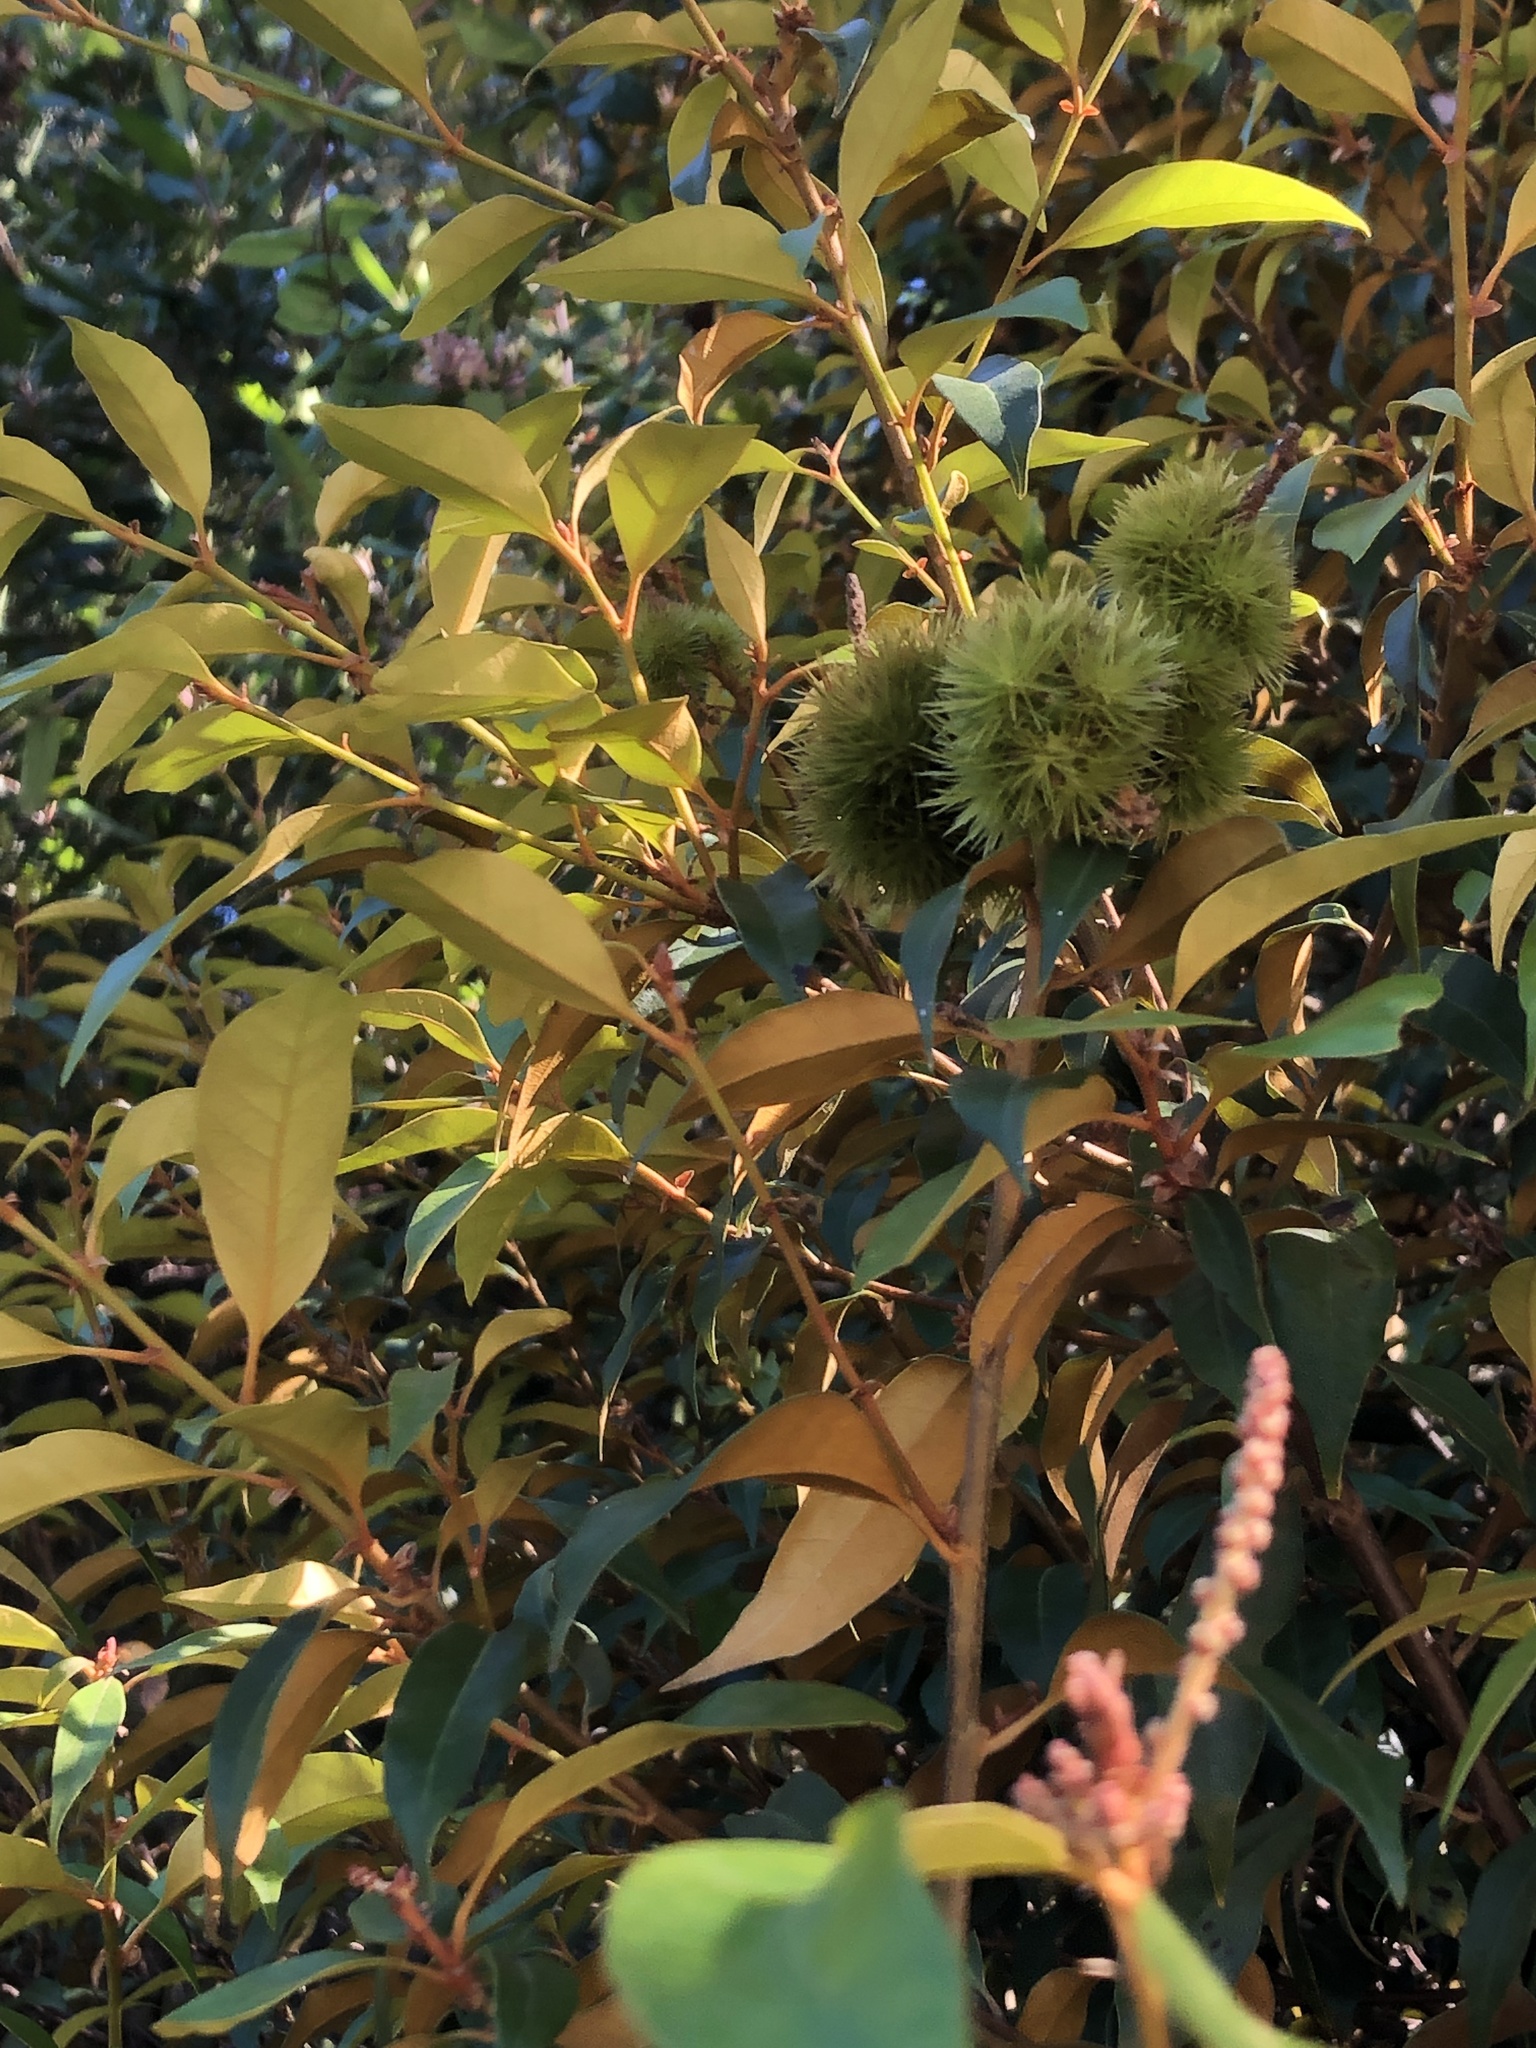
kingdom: Plantae
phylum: Tracheophyta
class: Magnoliopsida
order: Fagales
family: Fagaceae
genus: Chrysolepis
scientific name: Chrysolepis chrysophylla
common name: Giant chinquapin
